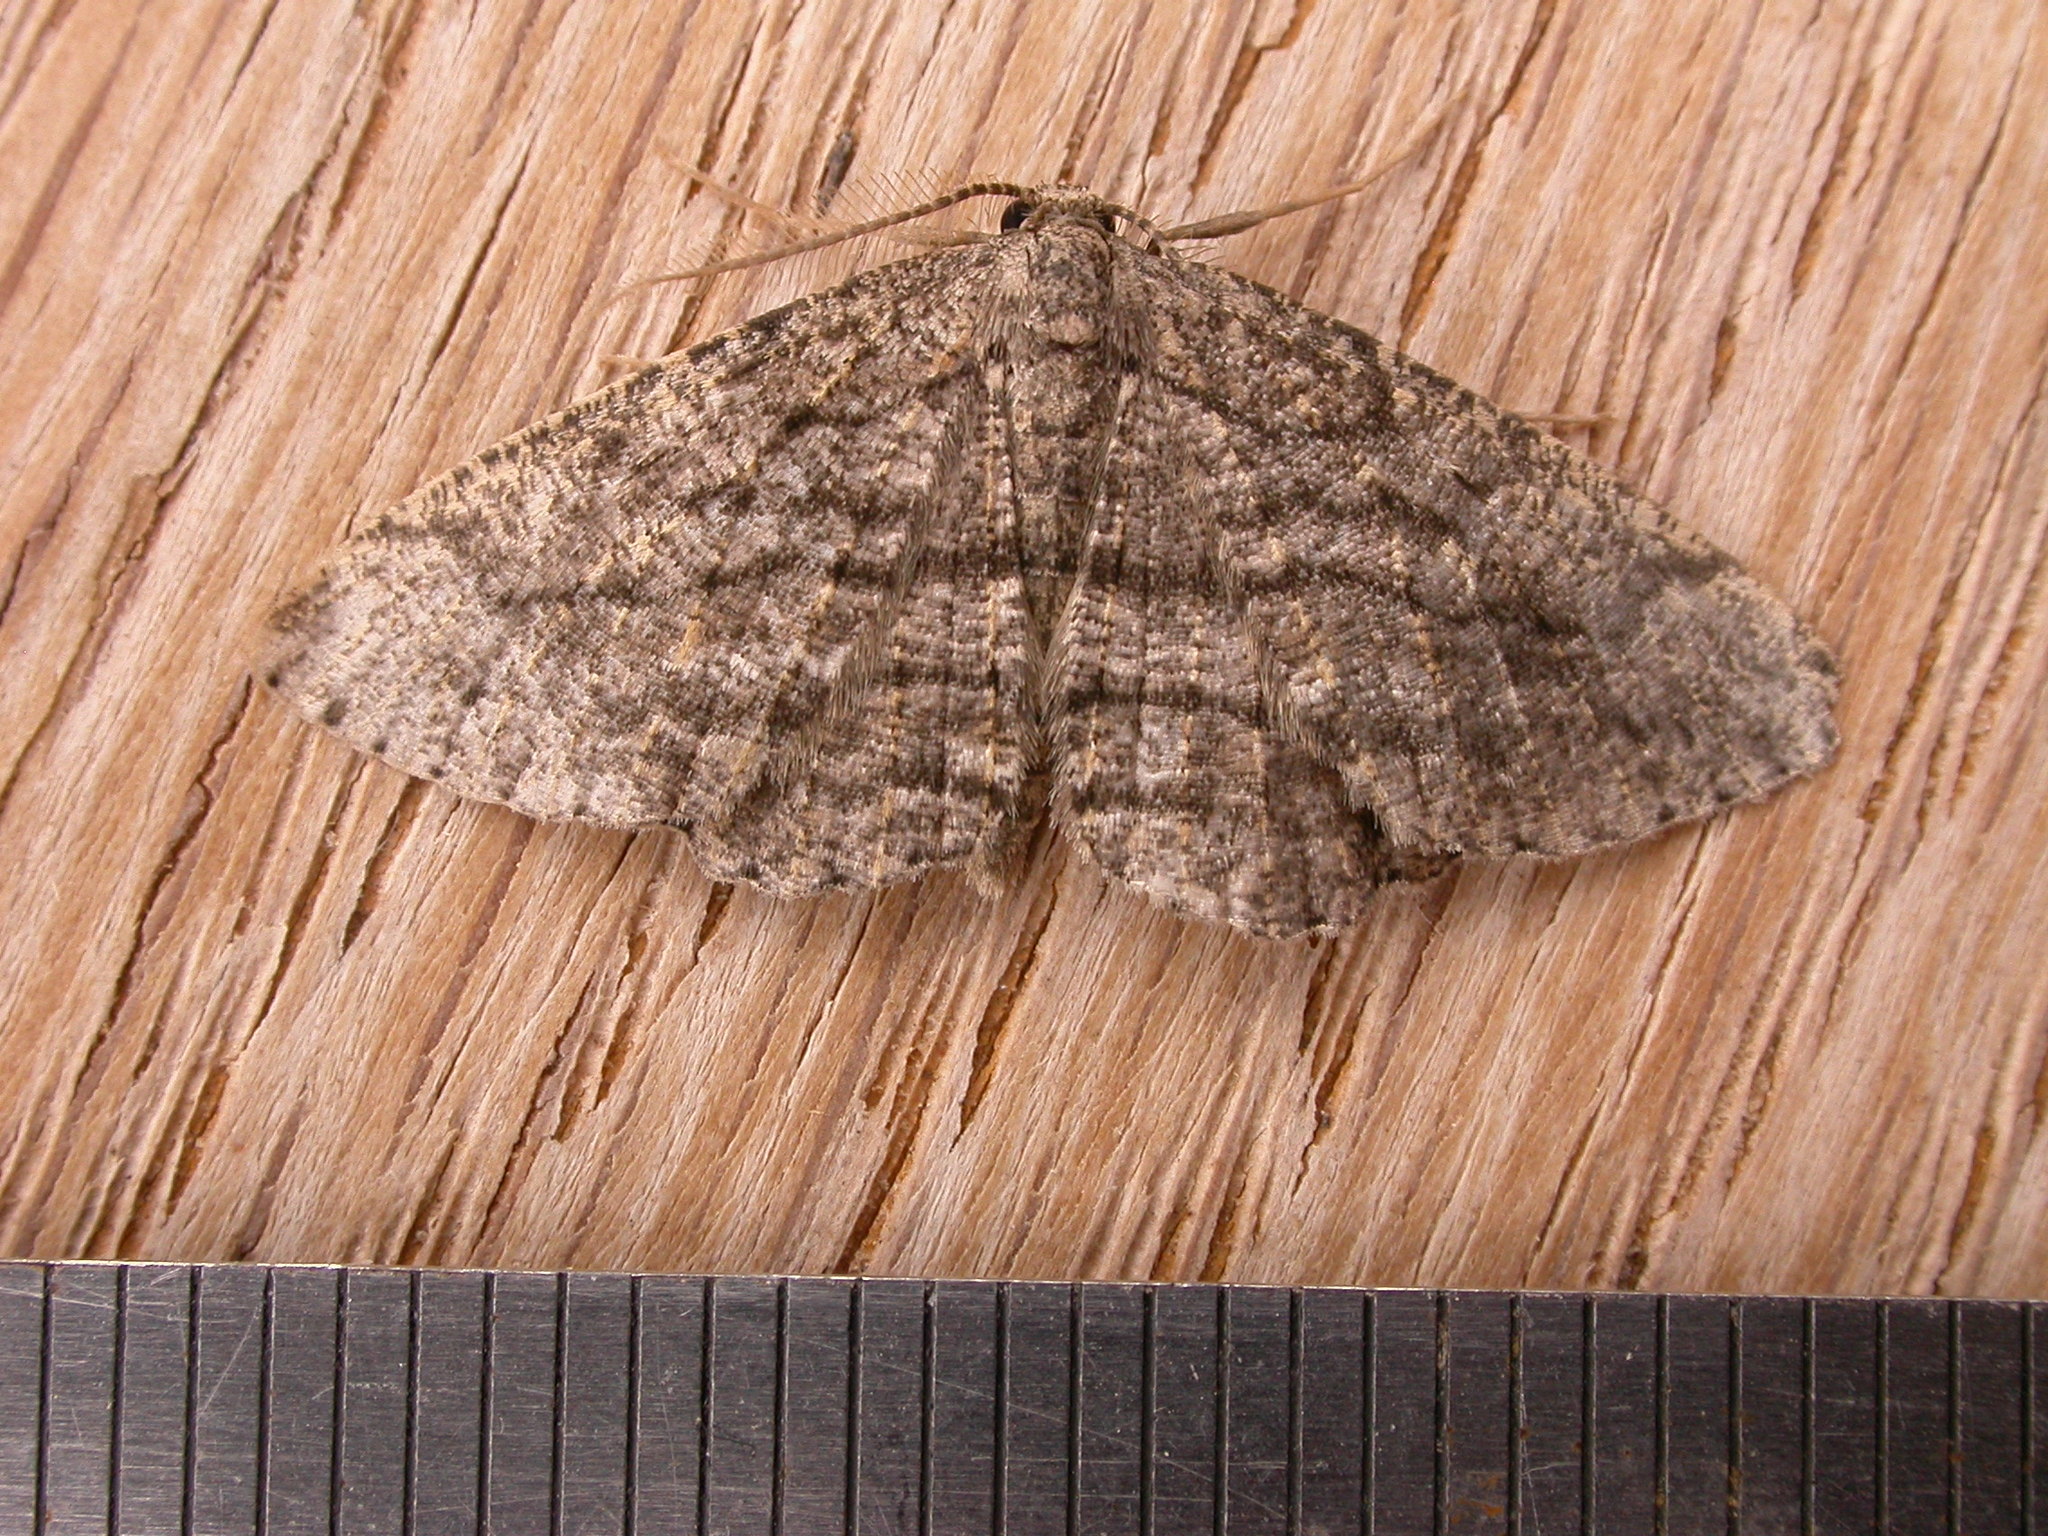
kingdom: Animalia
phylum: Arthropoda
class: Insecta
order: Lepidoptera
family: Geometridae
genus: Zermizinga
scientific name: Zermizinga sinuata
